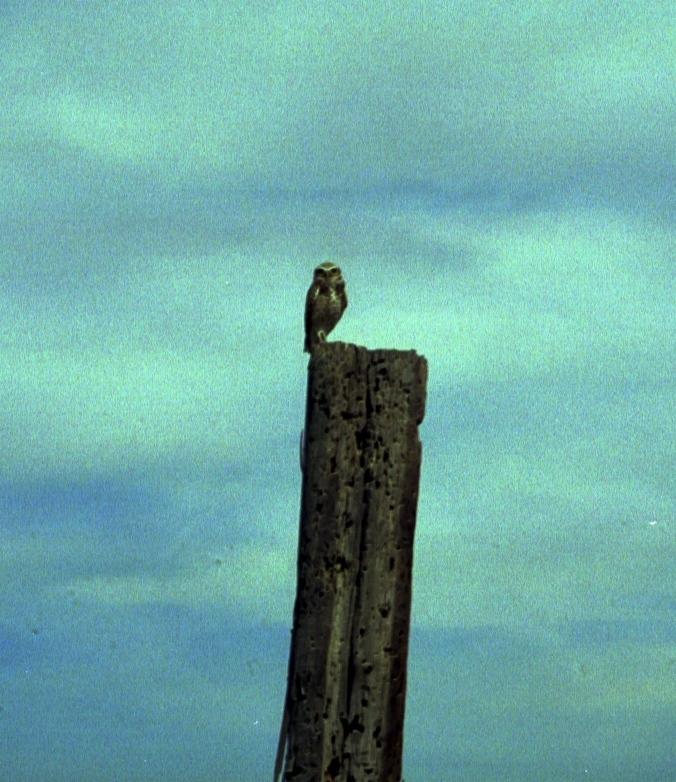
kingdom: Animalia
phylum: Chordata
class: Aves
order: Strigiformes
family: Strigidae
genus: Athene
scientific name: Athene cunicularia
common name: Burrowing owl
